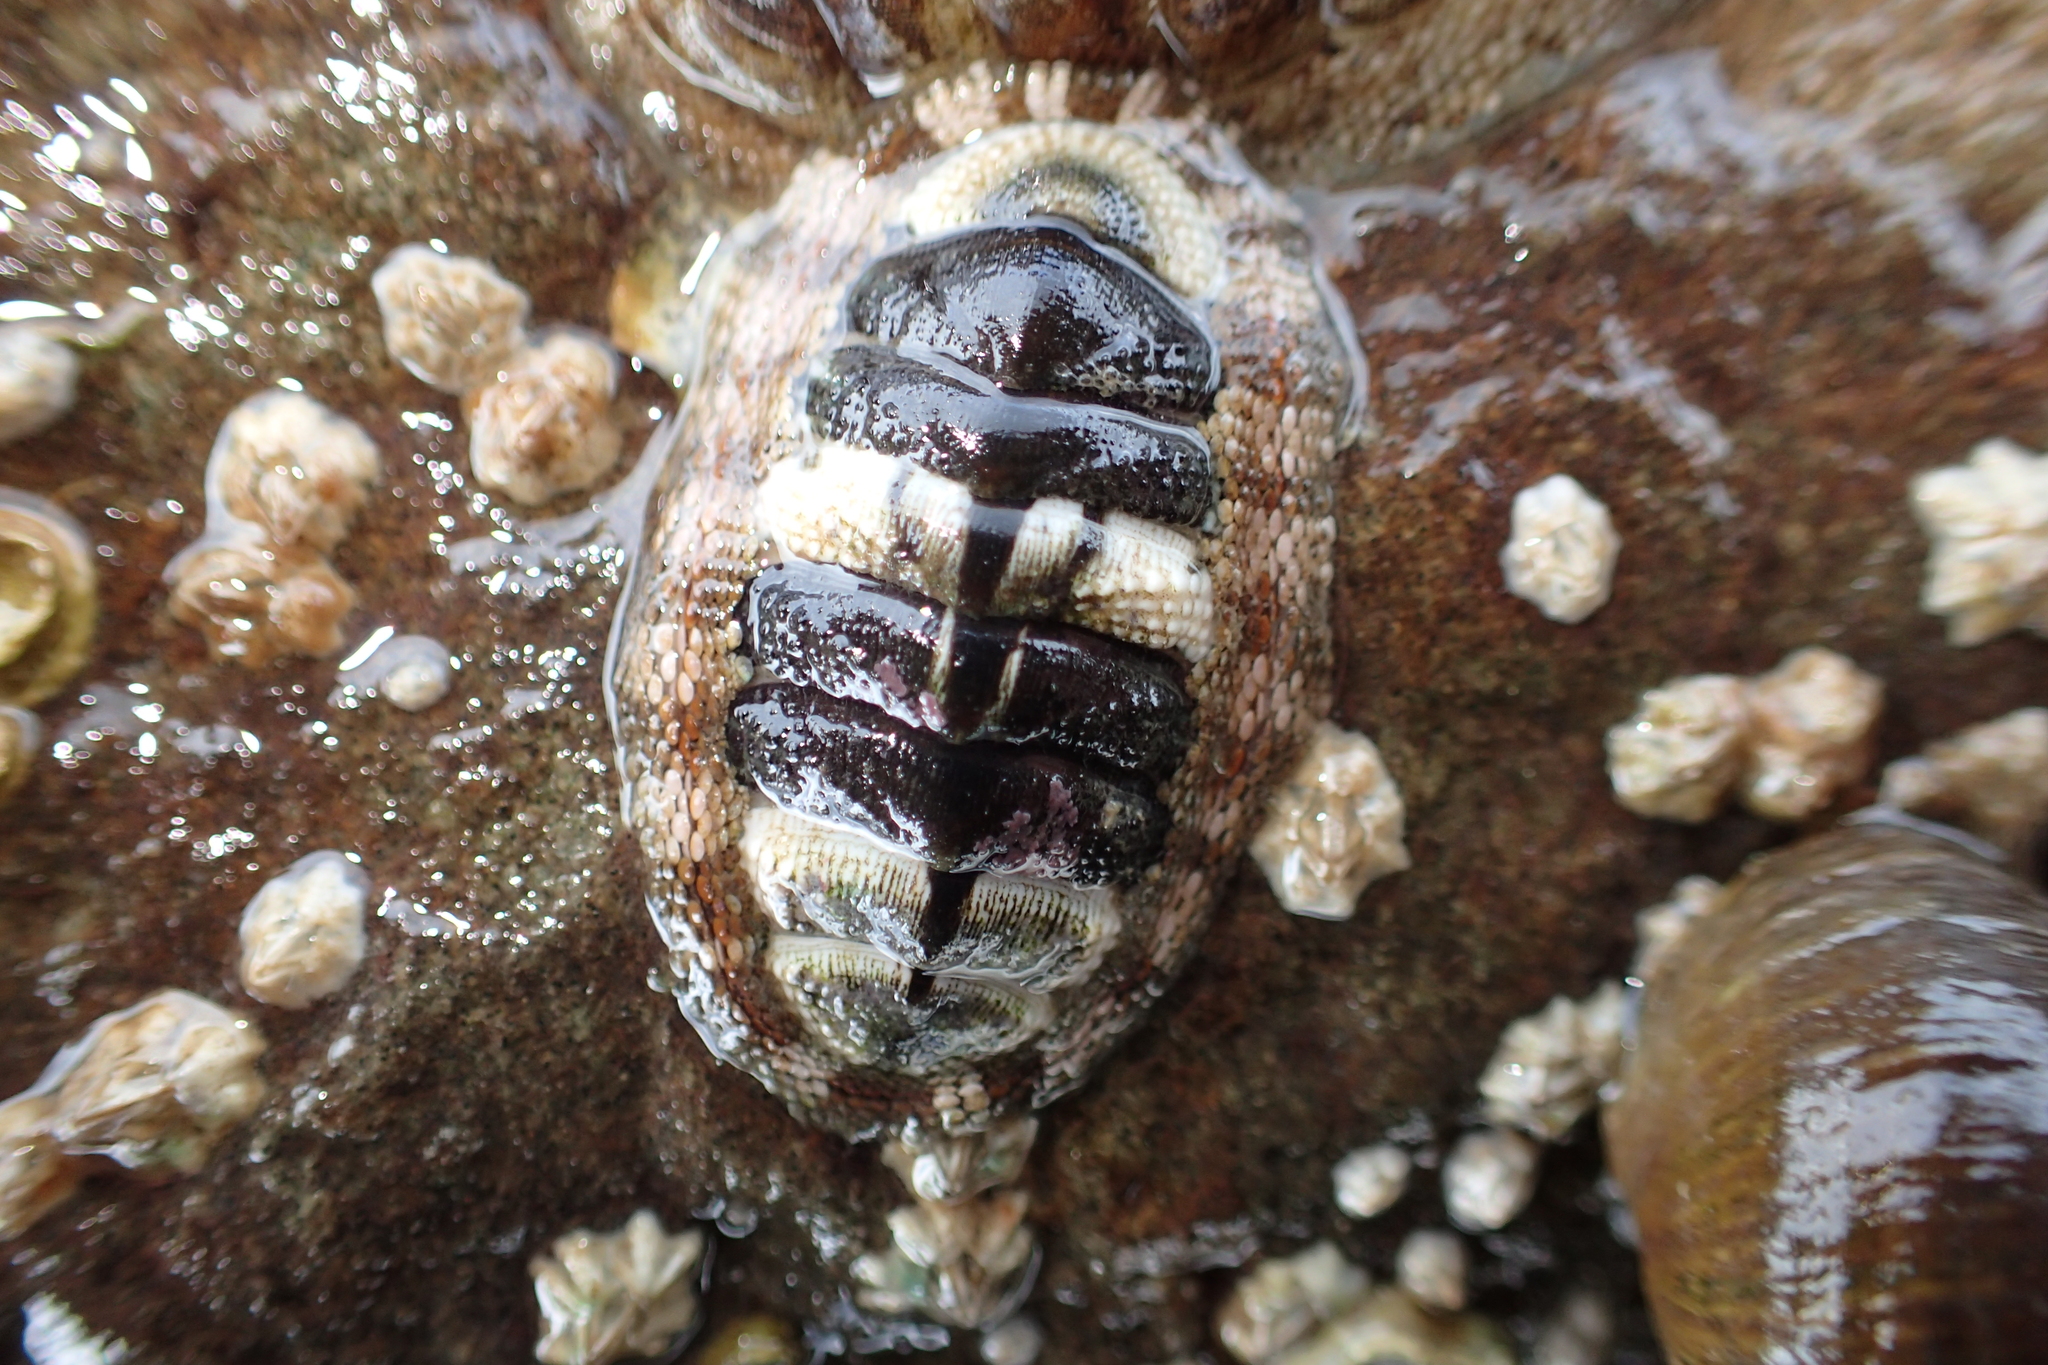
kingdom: Animalia
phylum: Mollusca
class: Polyplacophora
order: Chitonida
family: Chitonidae
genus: Sypharochiton
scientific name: Sypharochiton pelliserpentis
